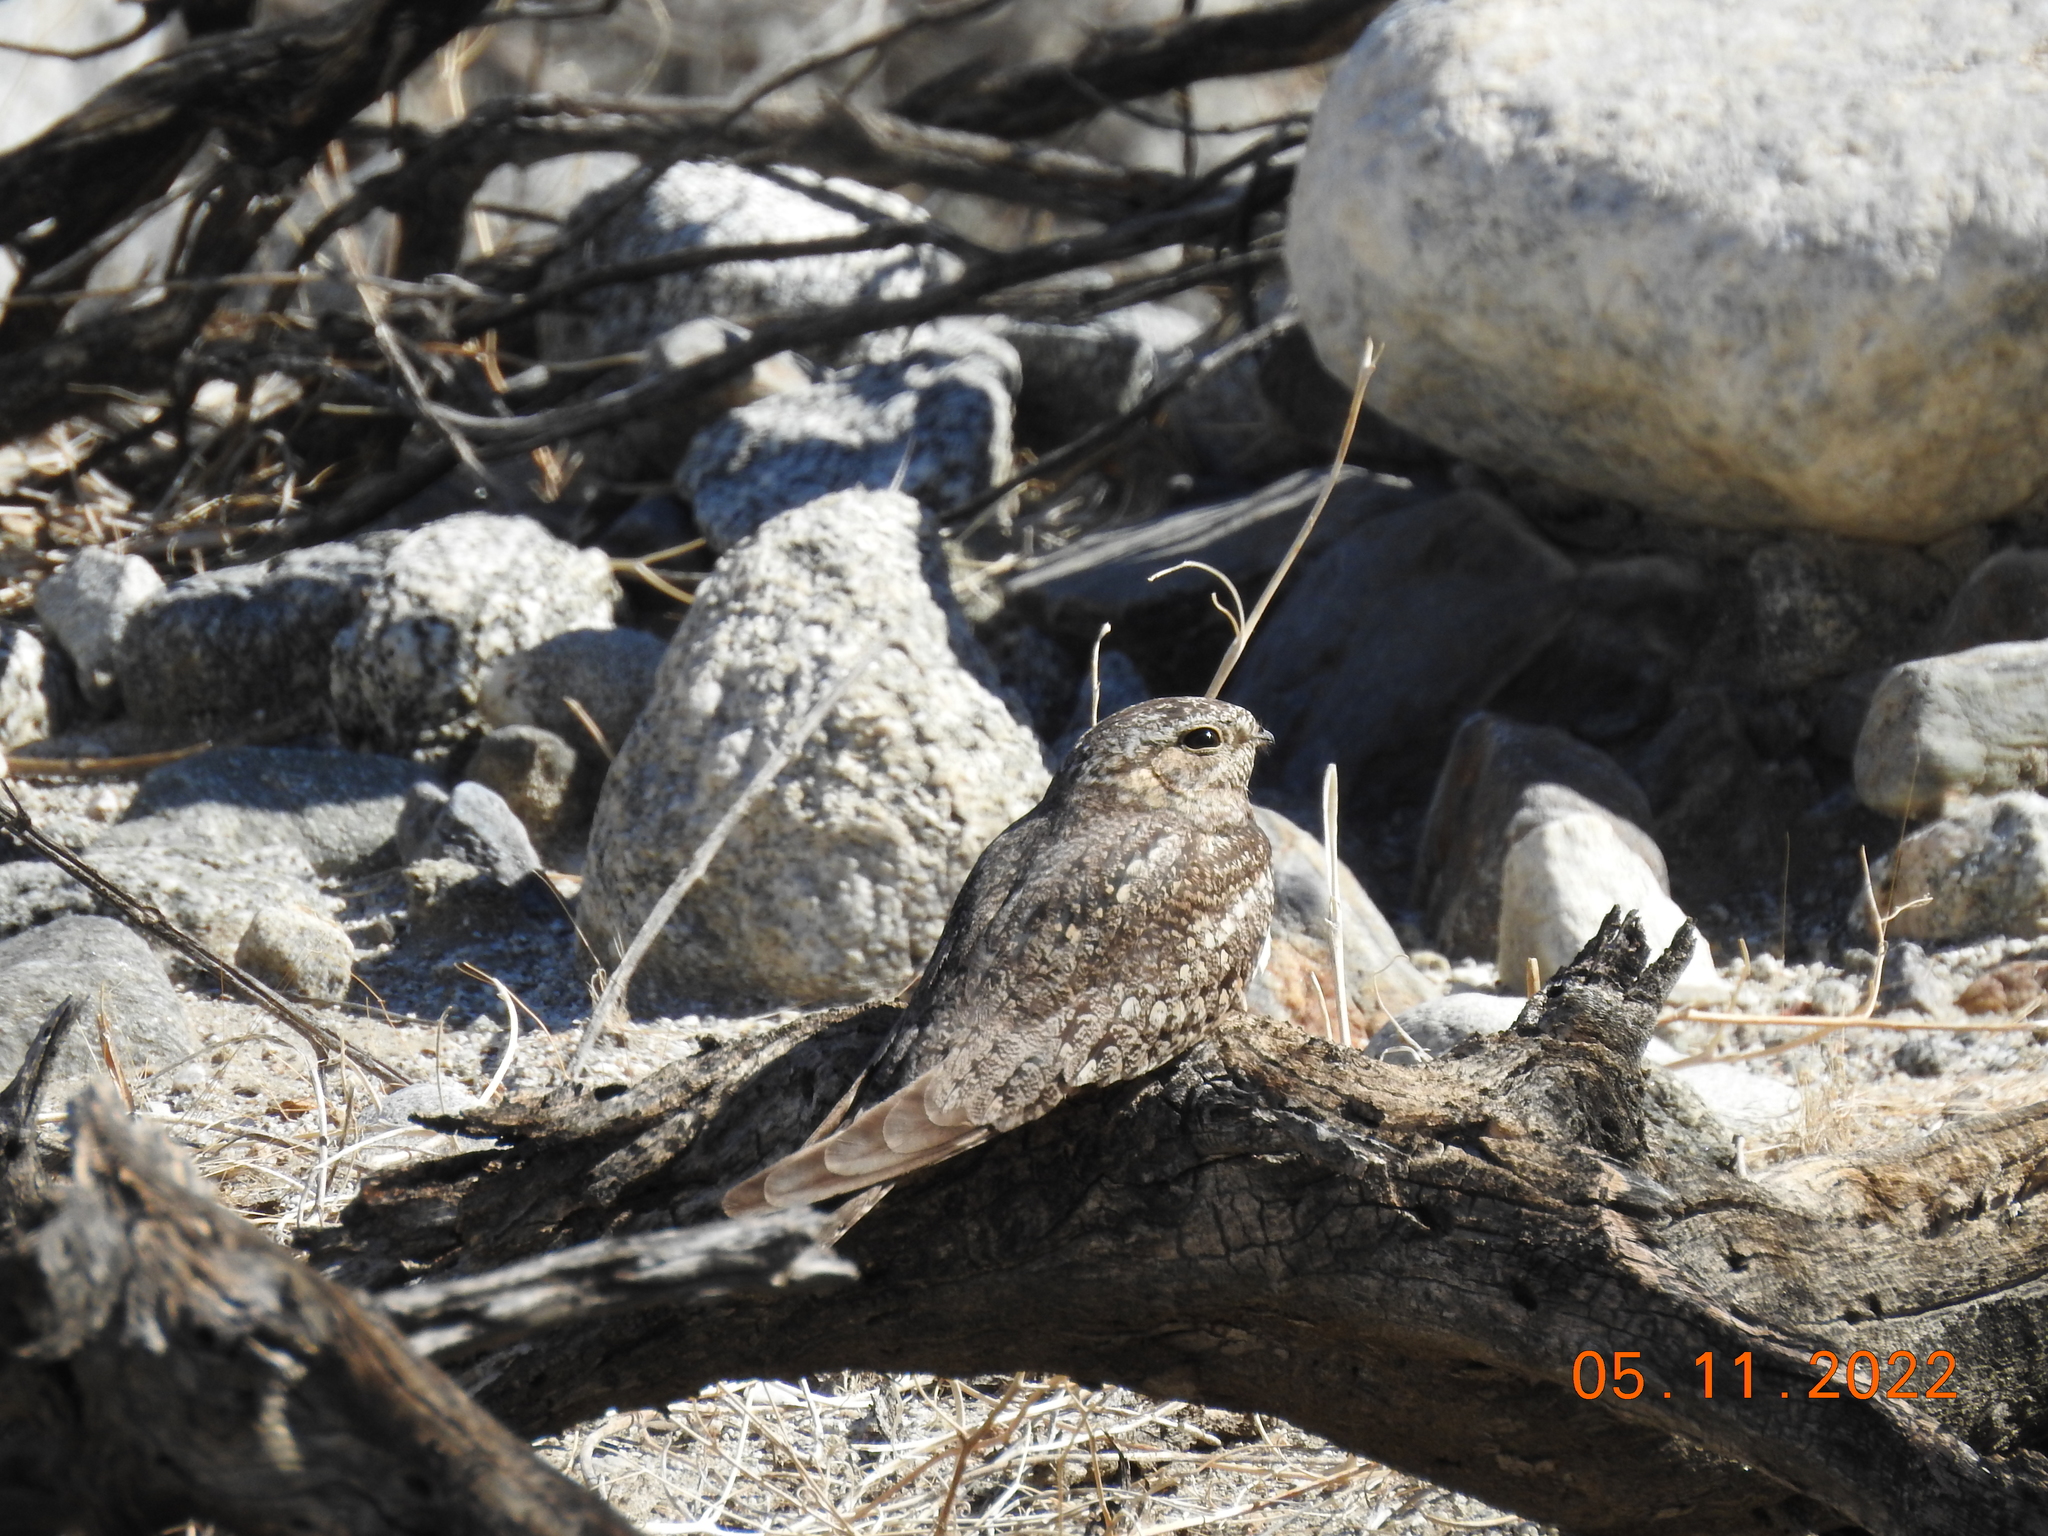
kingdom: Animalia
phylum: Chordata
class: Aves
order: Caprimulgiformes
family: Caprimulgidae
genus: Chordeiles
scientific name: Chordeiles acutipennis
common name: Lesser nighthawk
